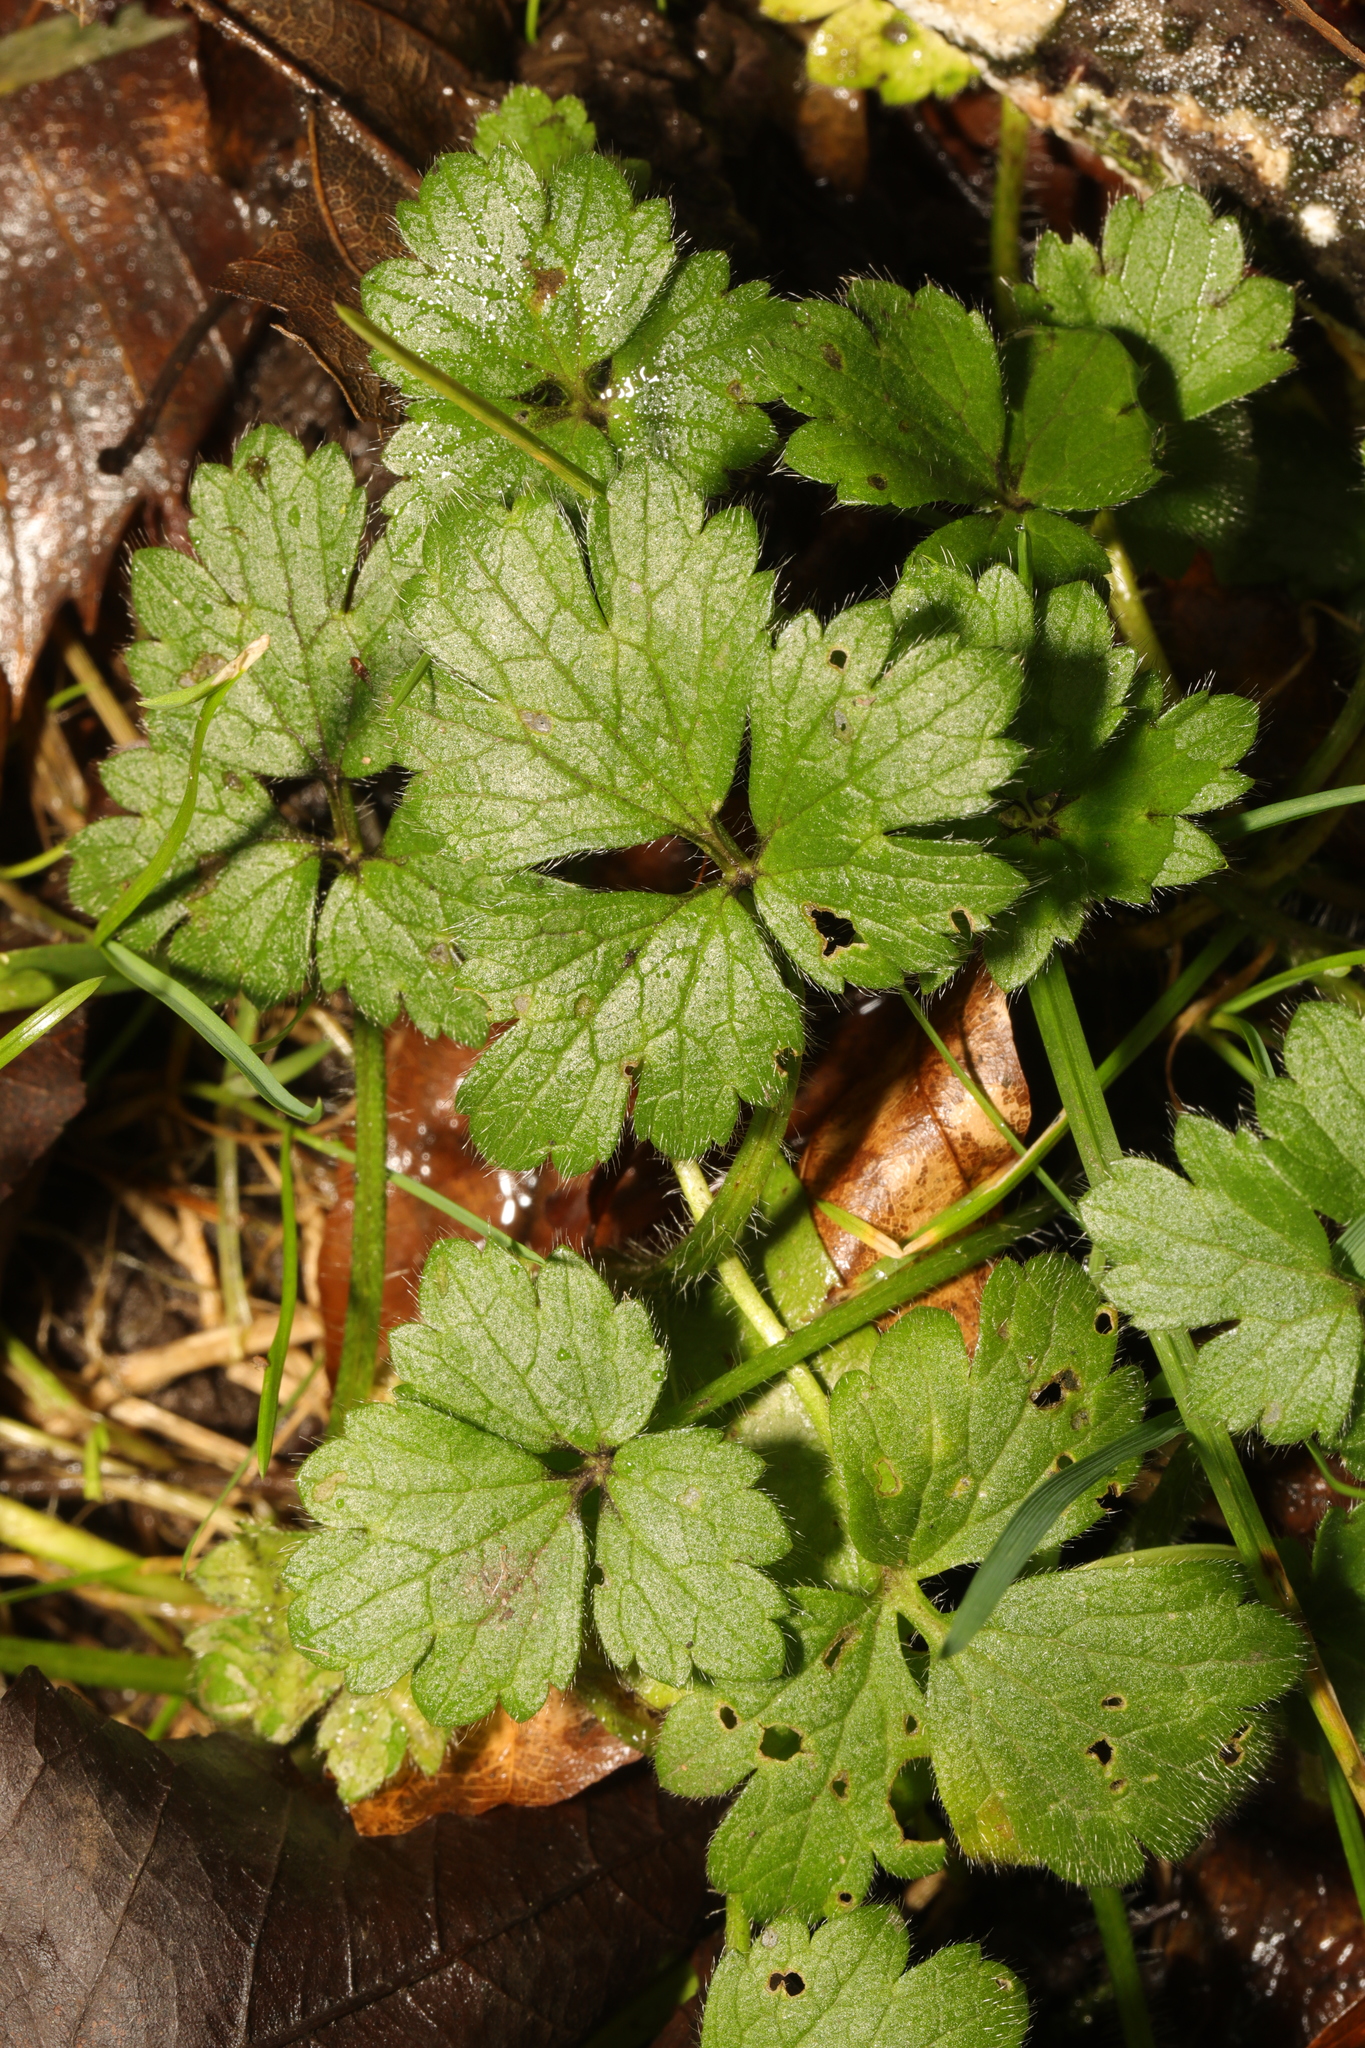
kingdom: Plantae
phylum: Tracheophyta
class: Magnoliopsida
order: Ranunculales
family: Ranunculaceae
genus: Ranunculus
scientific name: Ranunculus repens
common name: Creeping buttercup
